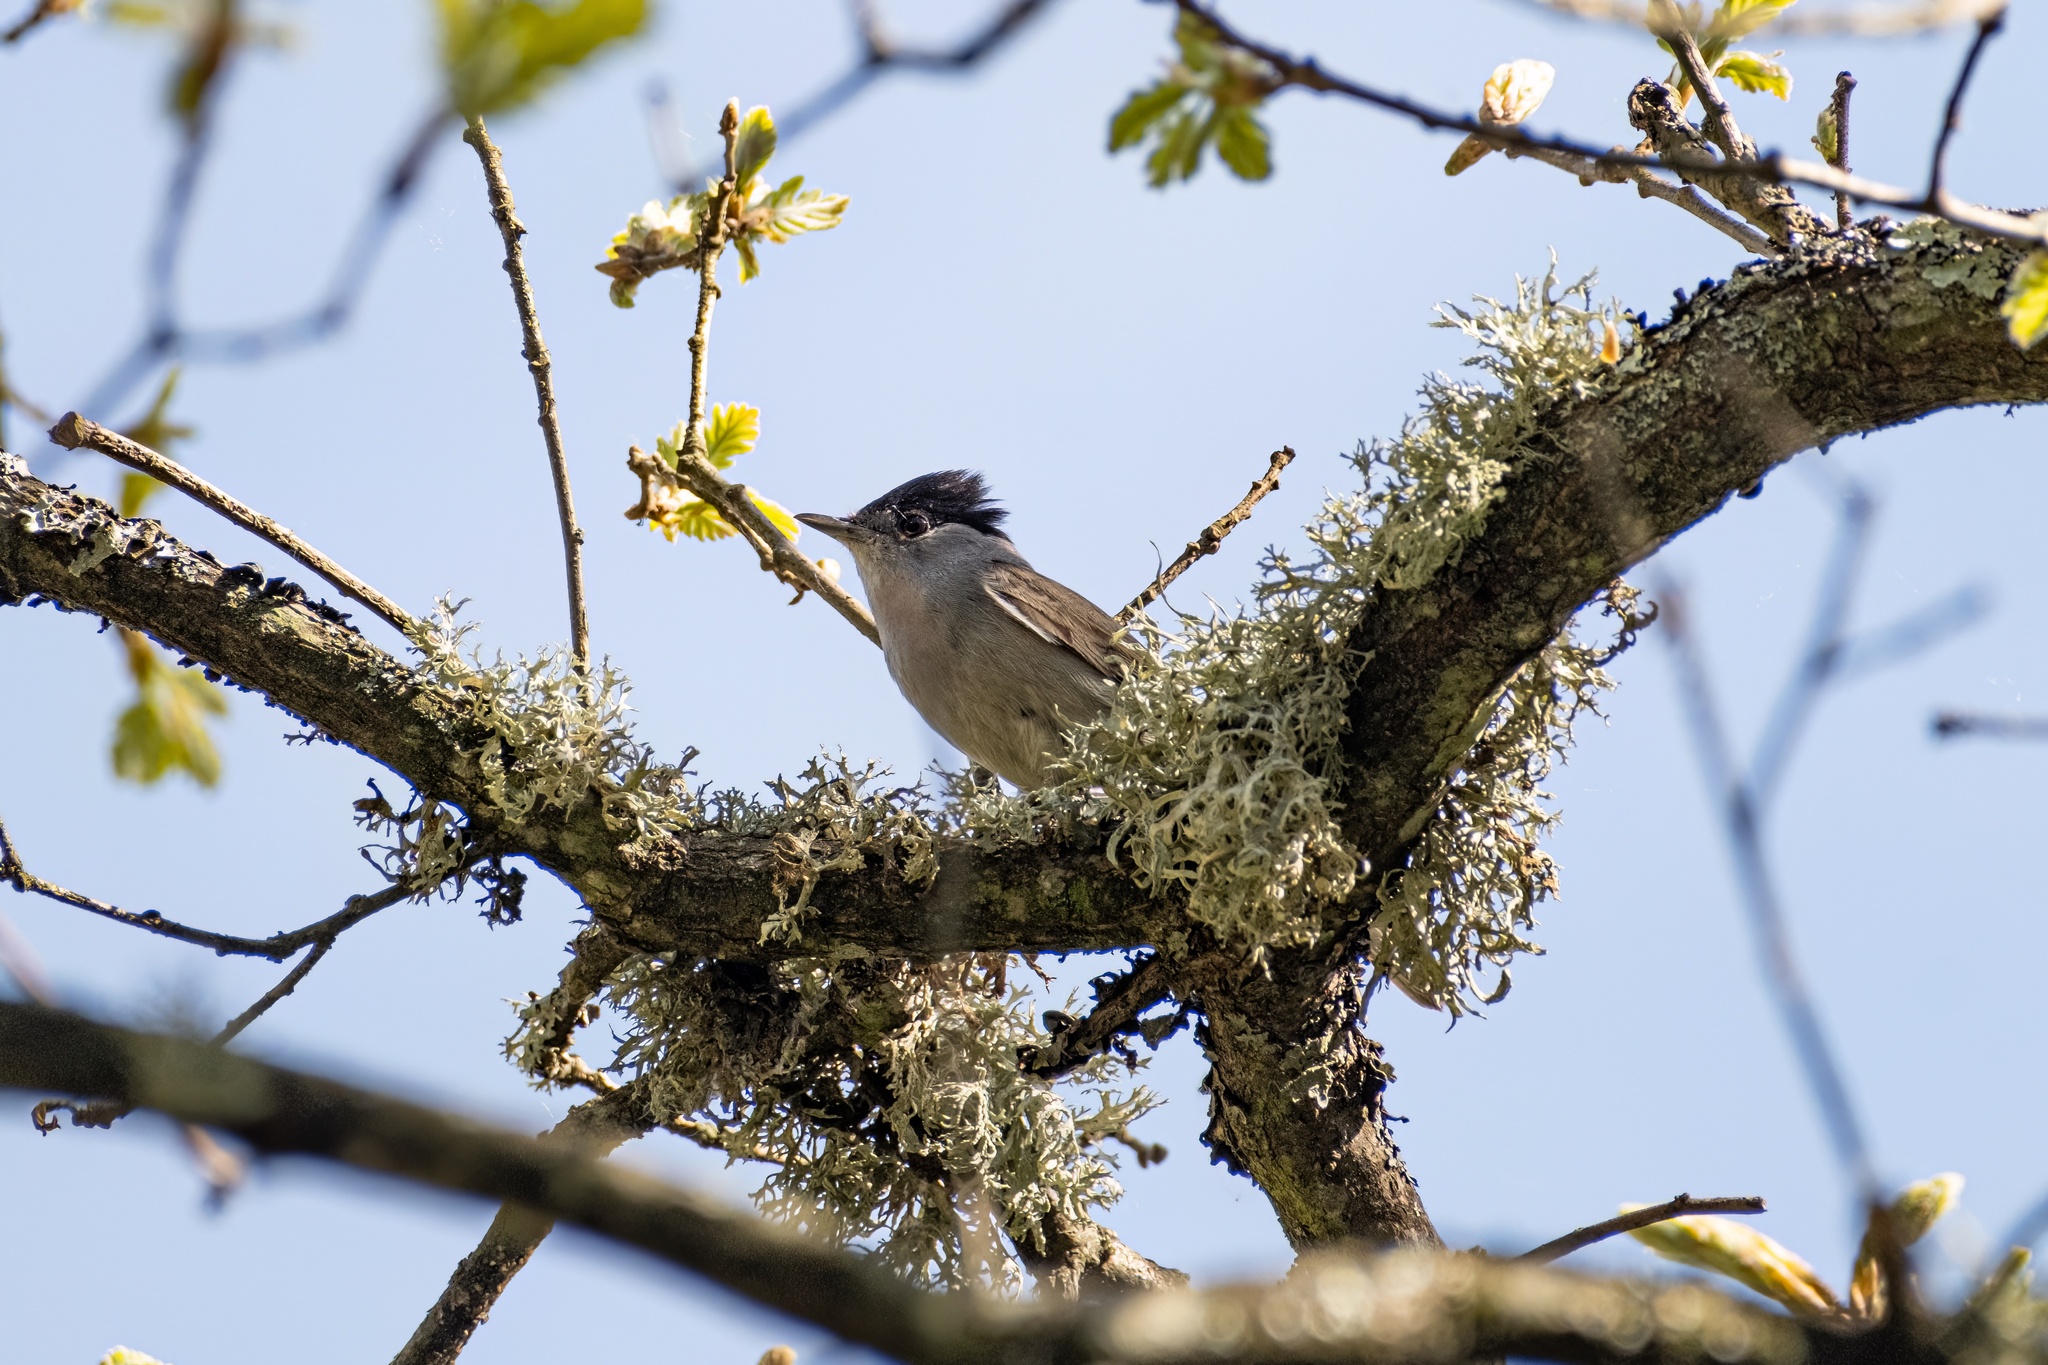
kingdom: Animalia
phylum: Chordata
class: Aves
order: Passeriformes
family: Sylviidae
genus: Sylvia
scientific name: Sylvia atricapilla
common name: Eurasian blackcap
